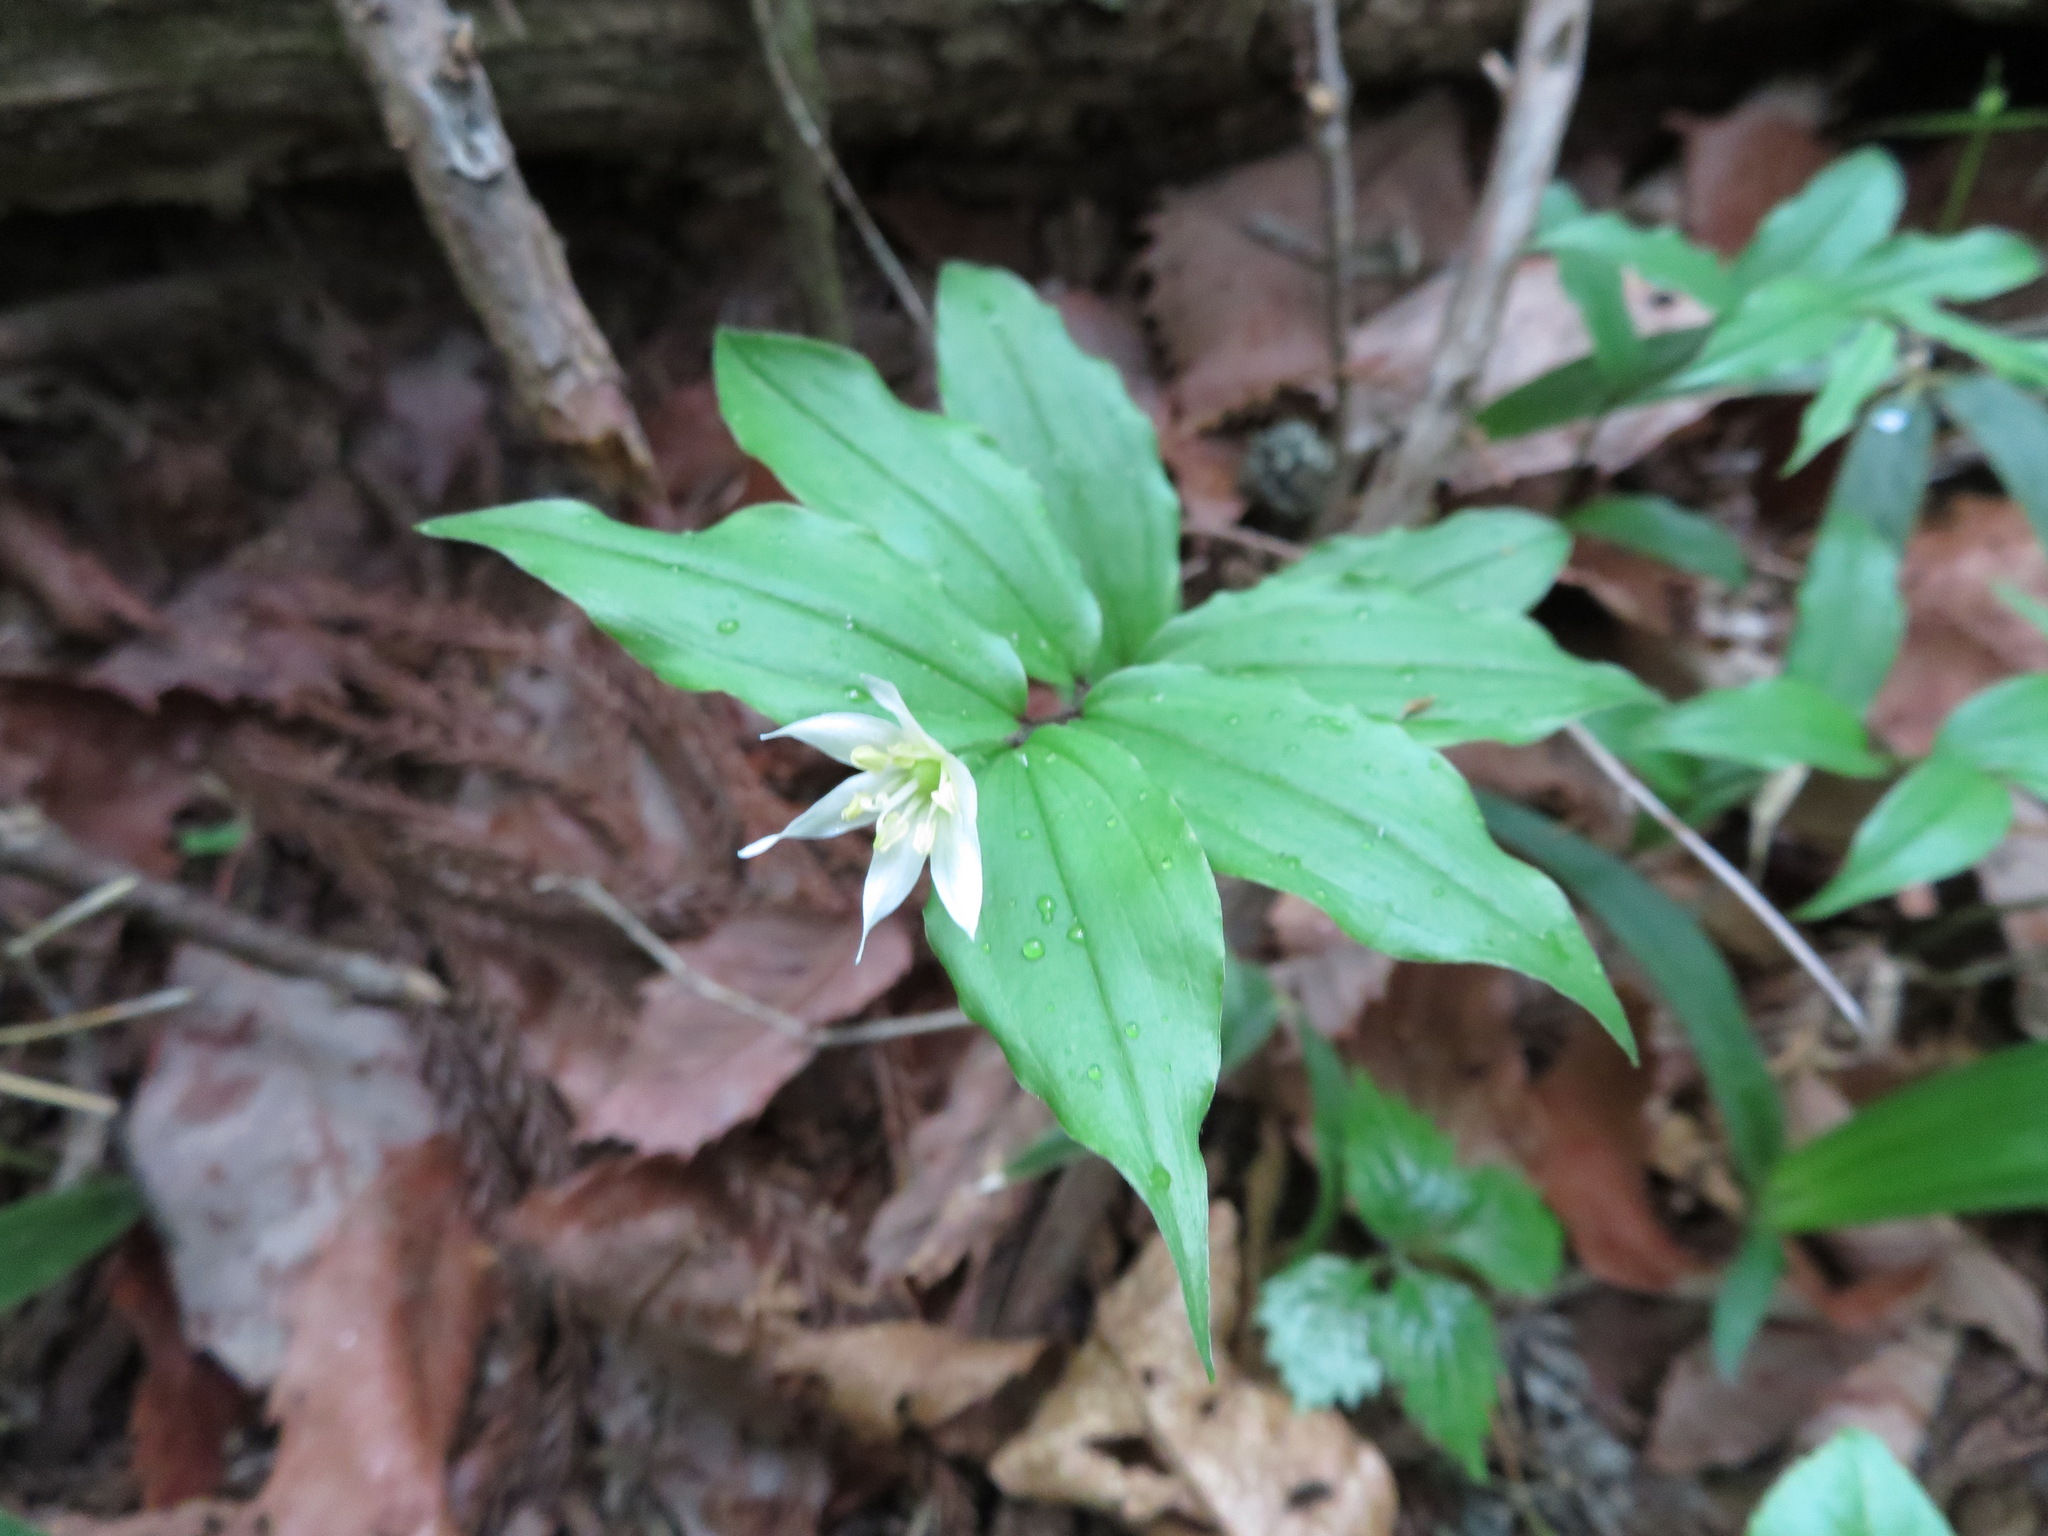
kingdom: Plantae
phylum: Tracheophyta
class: Liliopsida
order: Liliales
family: Colchicaceae
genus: Disporum
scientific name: Disporum smilacinum
